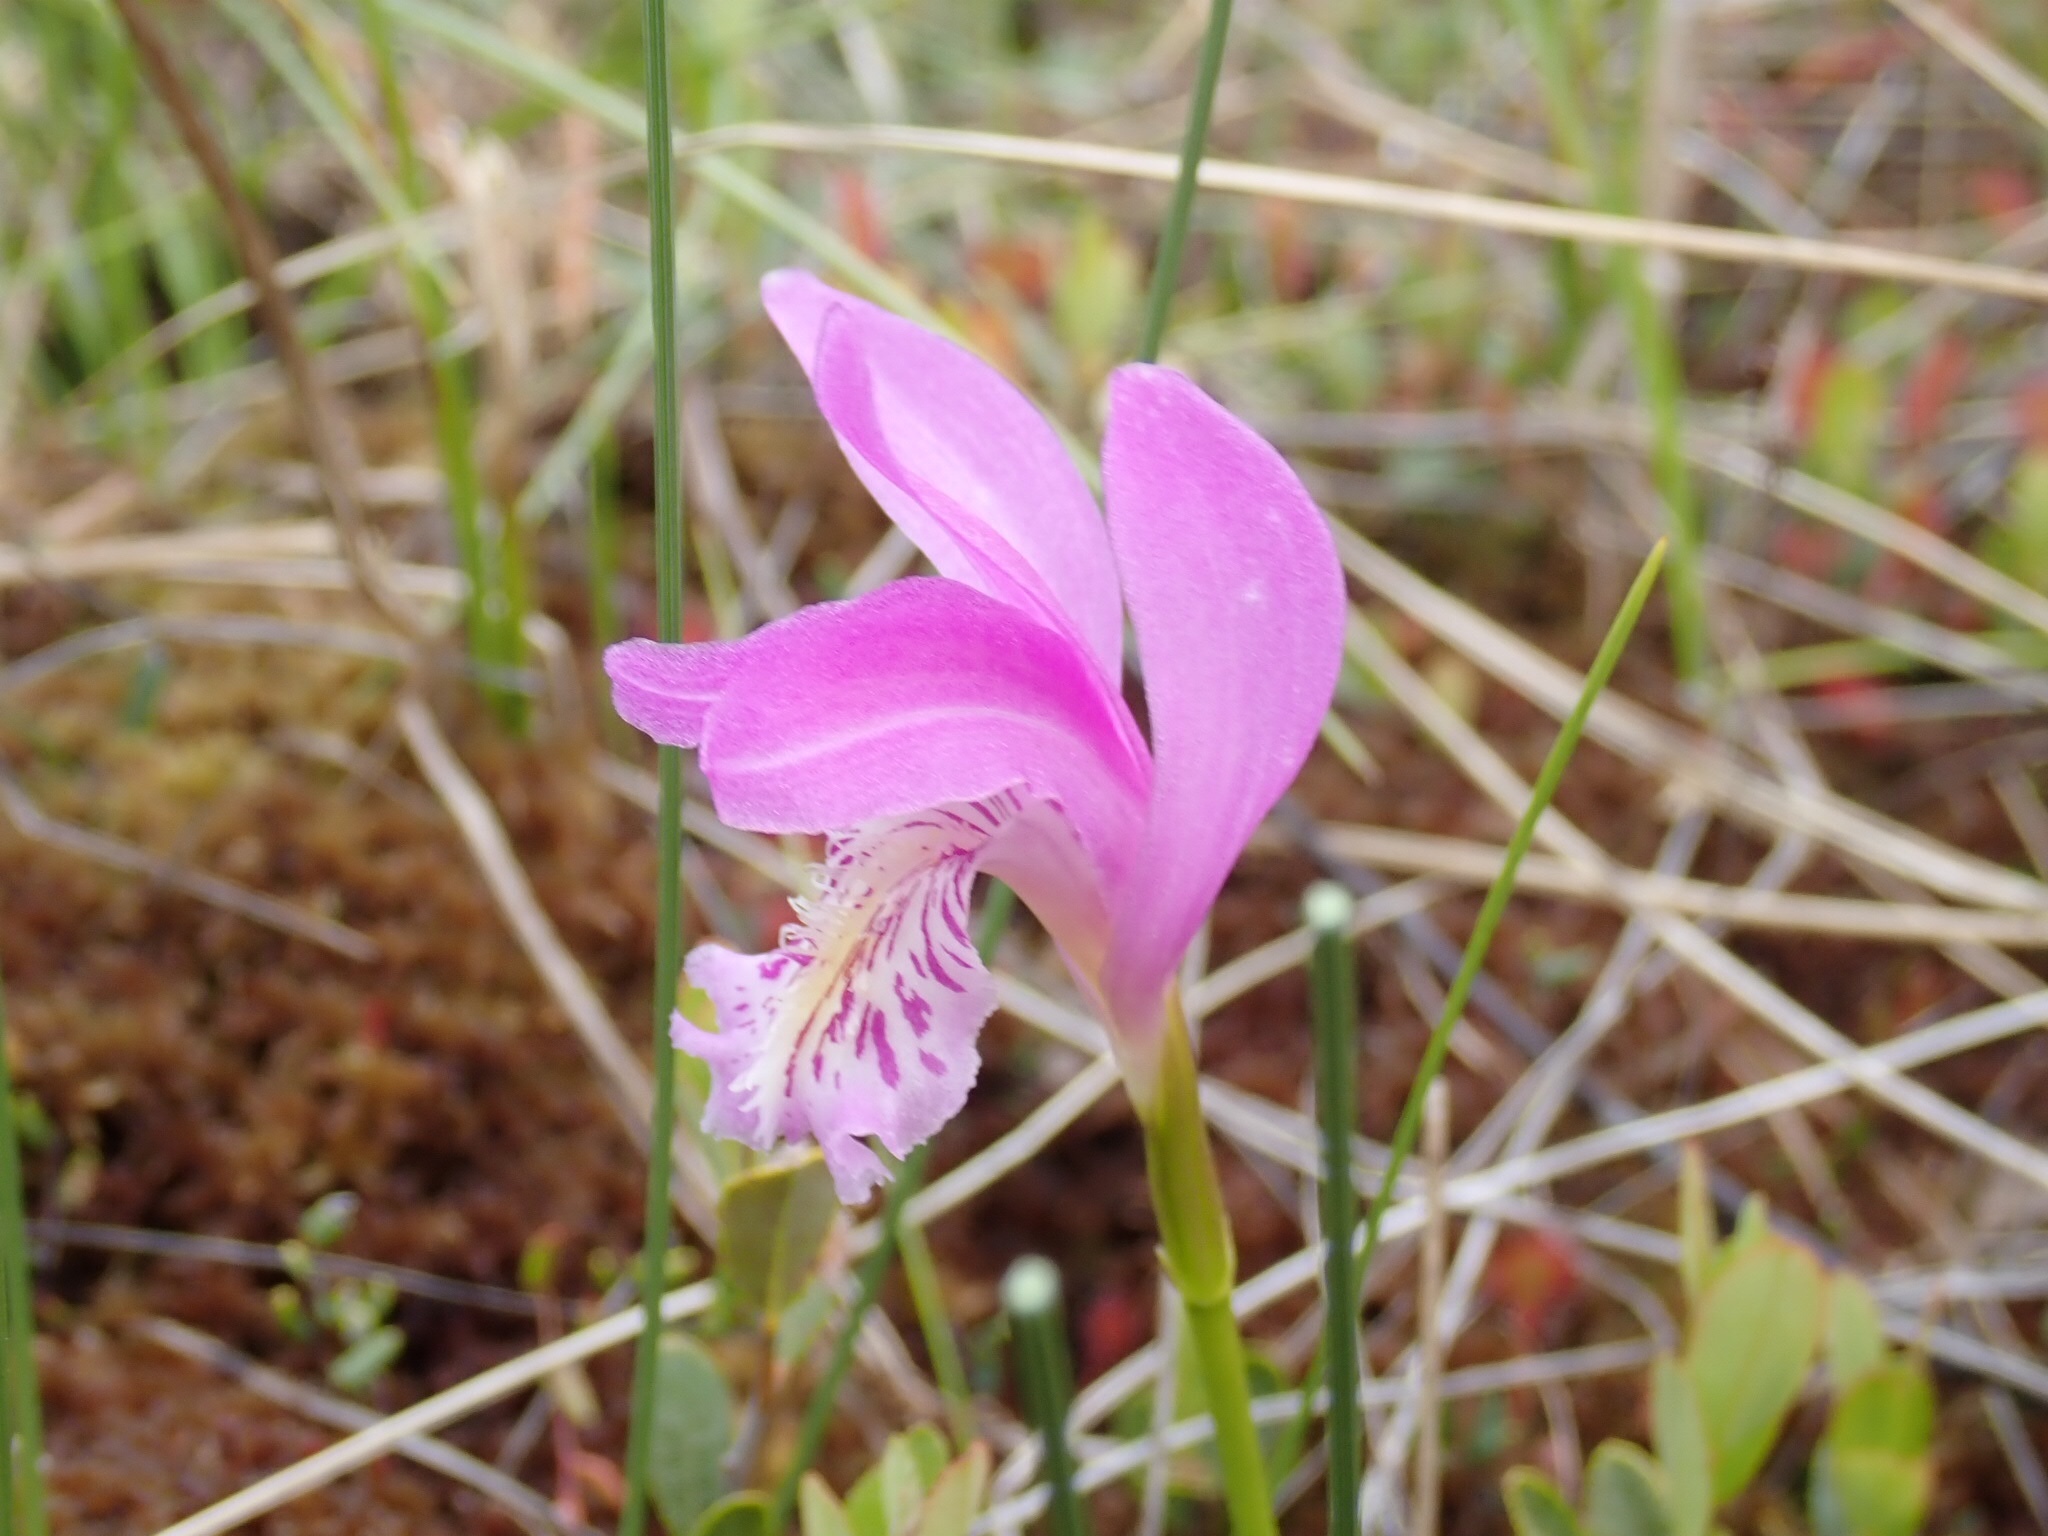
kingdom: Plantae
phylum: Tracheophyta
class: Liliopsida
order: Asparagales
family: Orchidaceae
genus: Arethusa
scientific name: Arethusa bulbosa
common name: Arethusa
